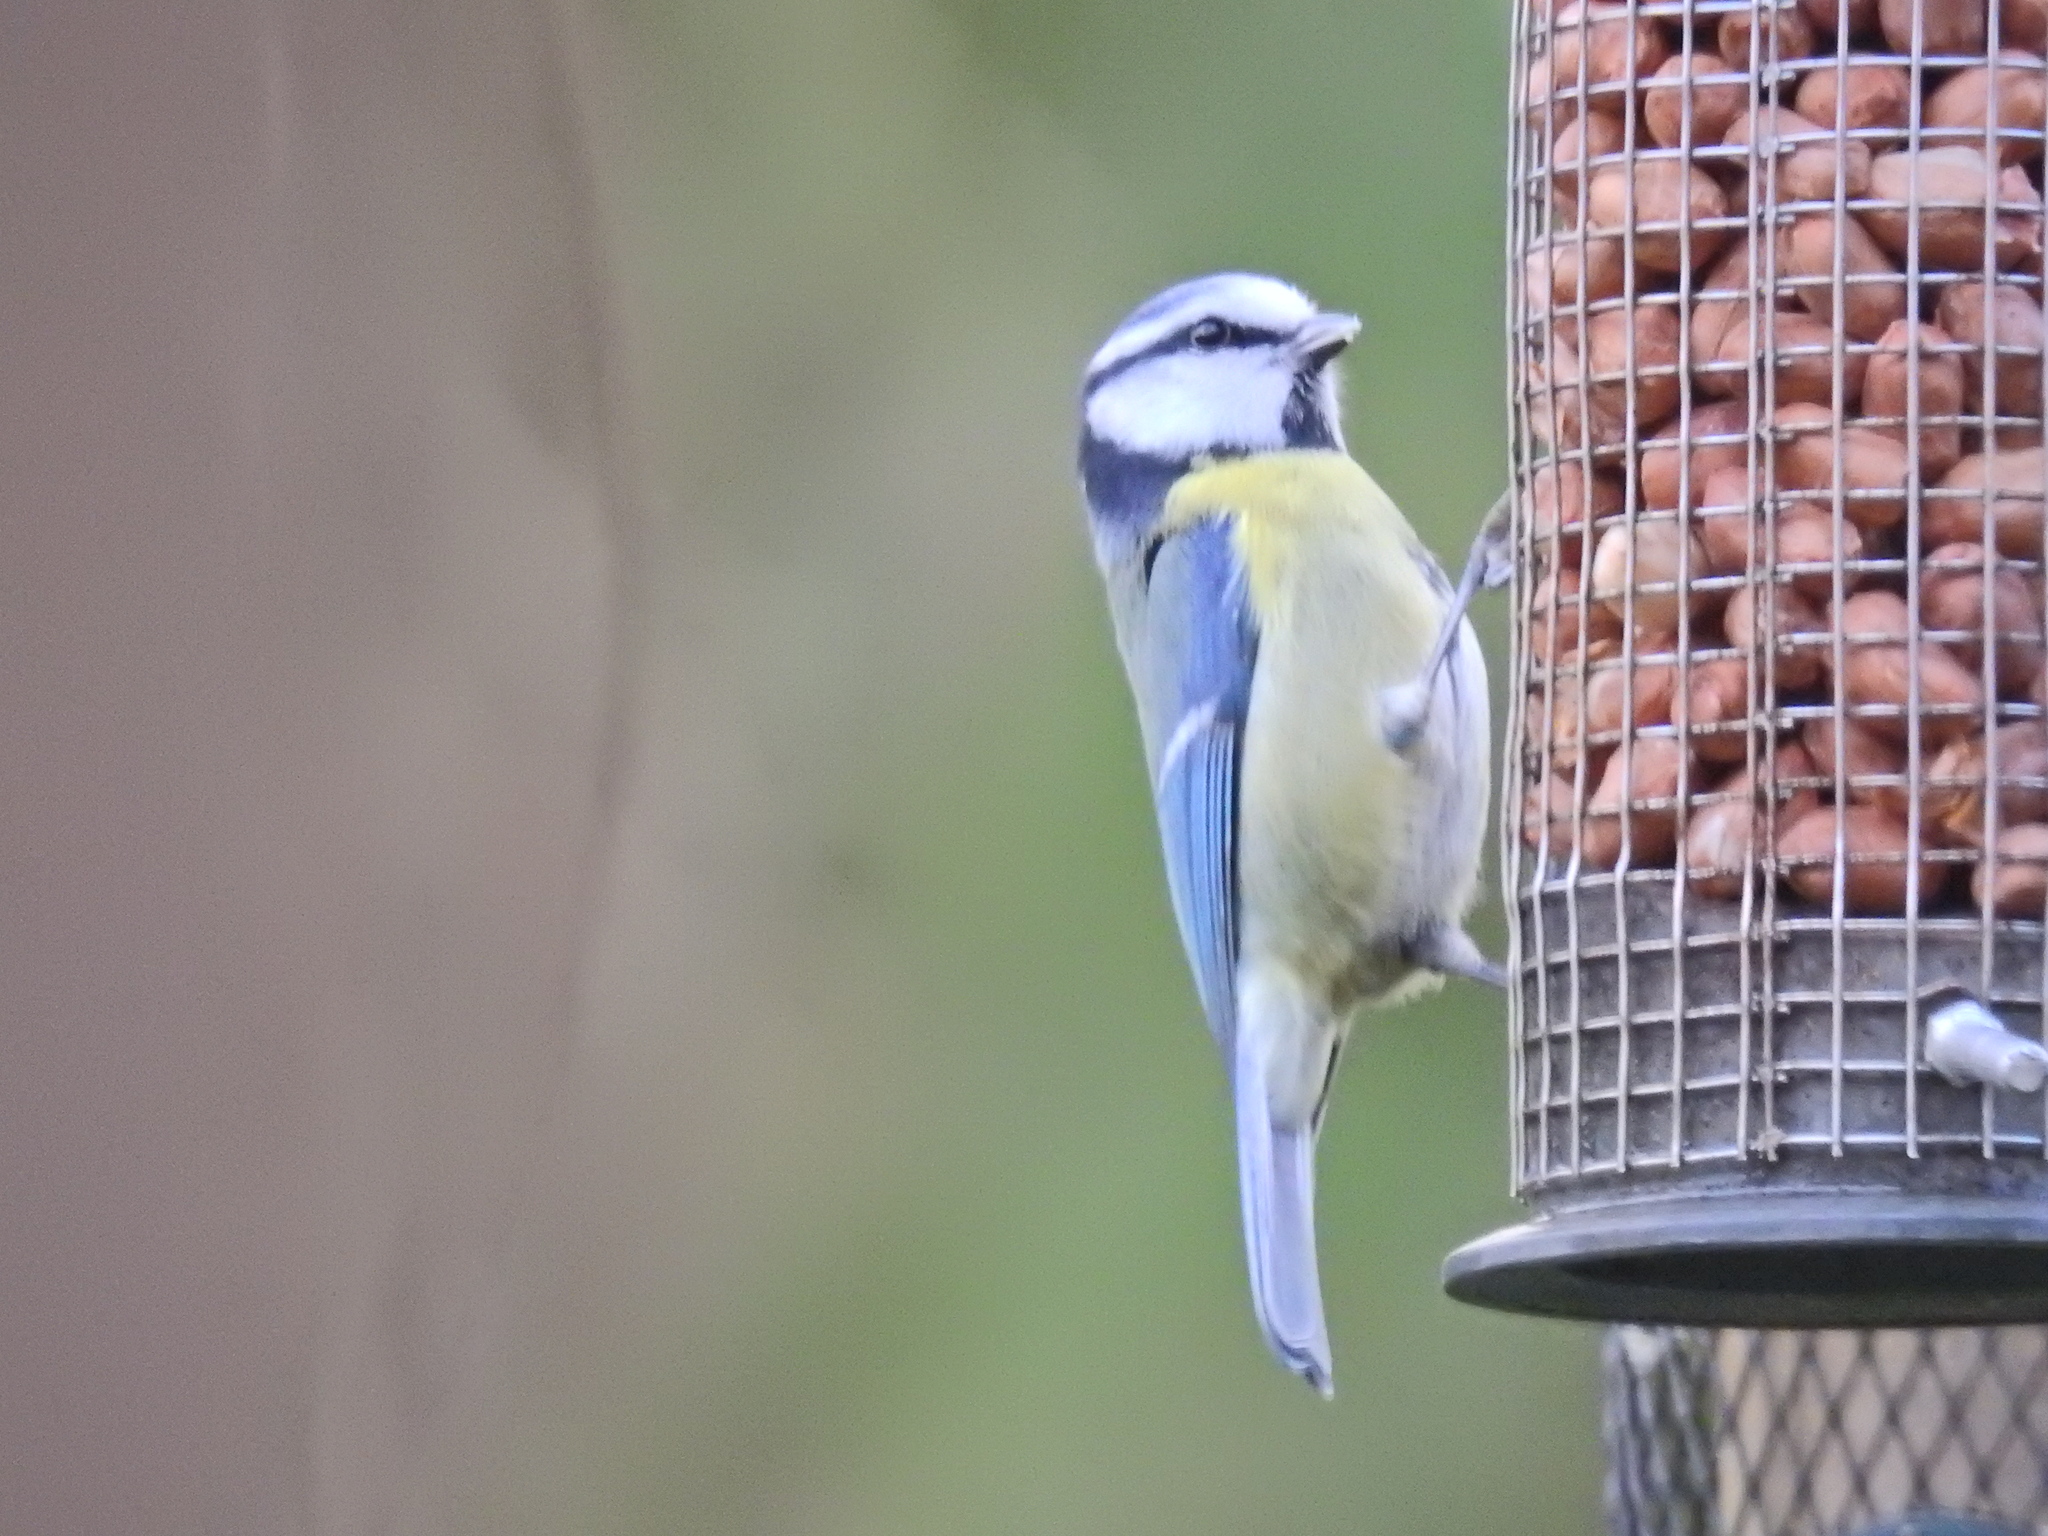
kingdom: Animalia
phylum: Chordata
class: Aves
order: Passeriformes
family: Paridae
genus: Cyanistes
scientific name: Cyanistes caeruleus
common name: Eurasian blue tit
